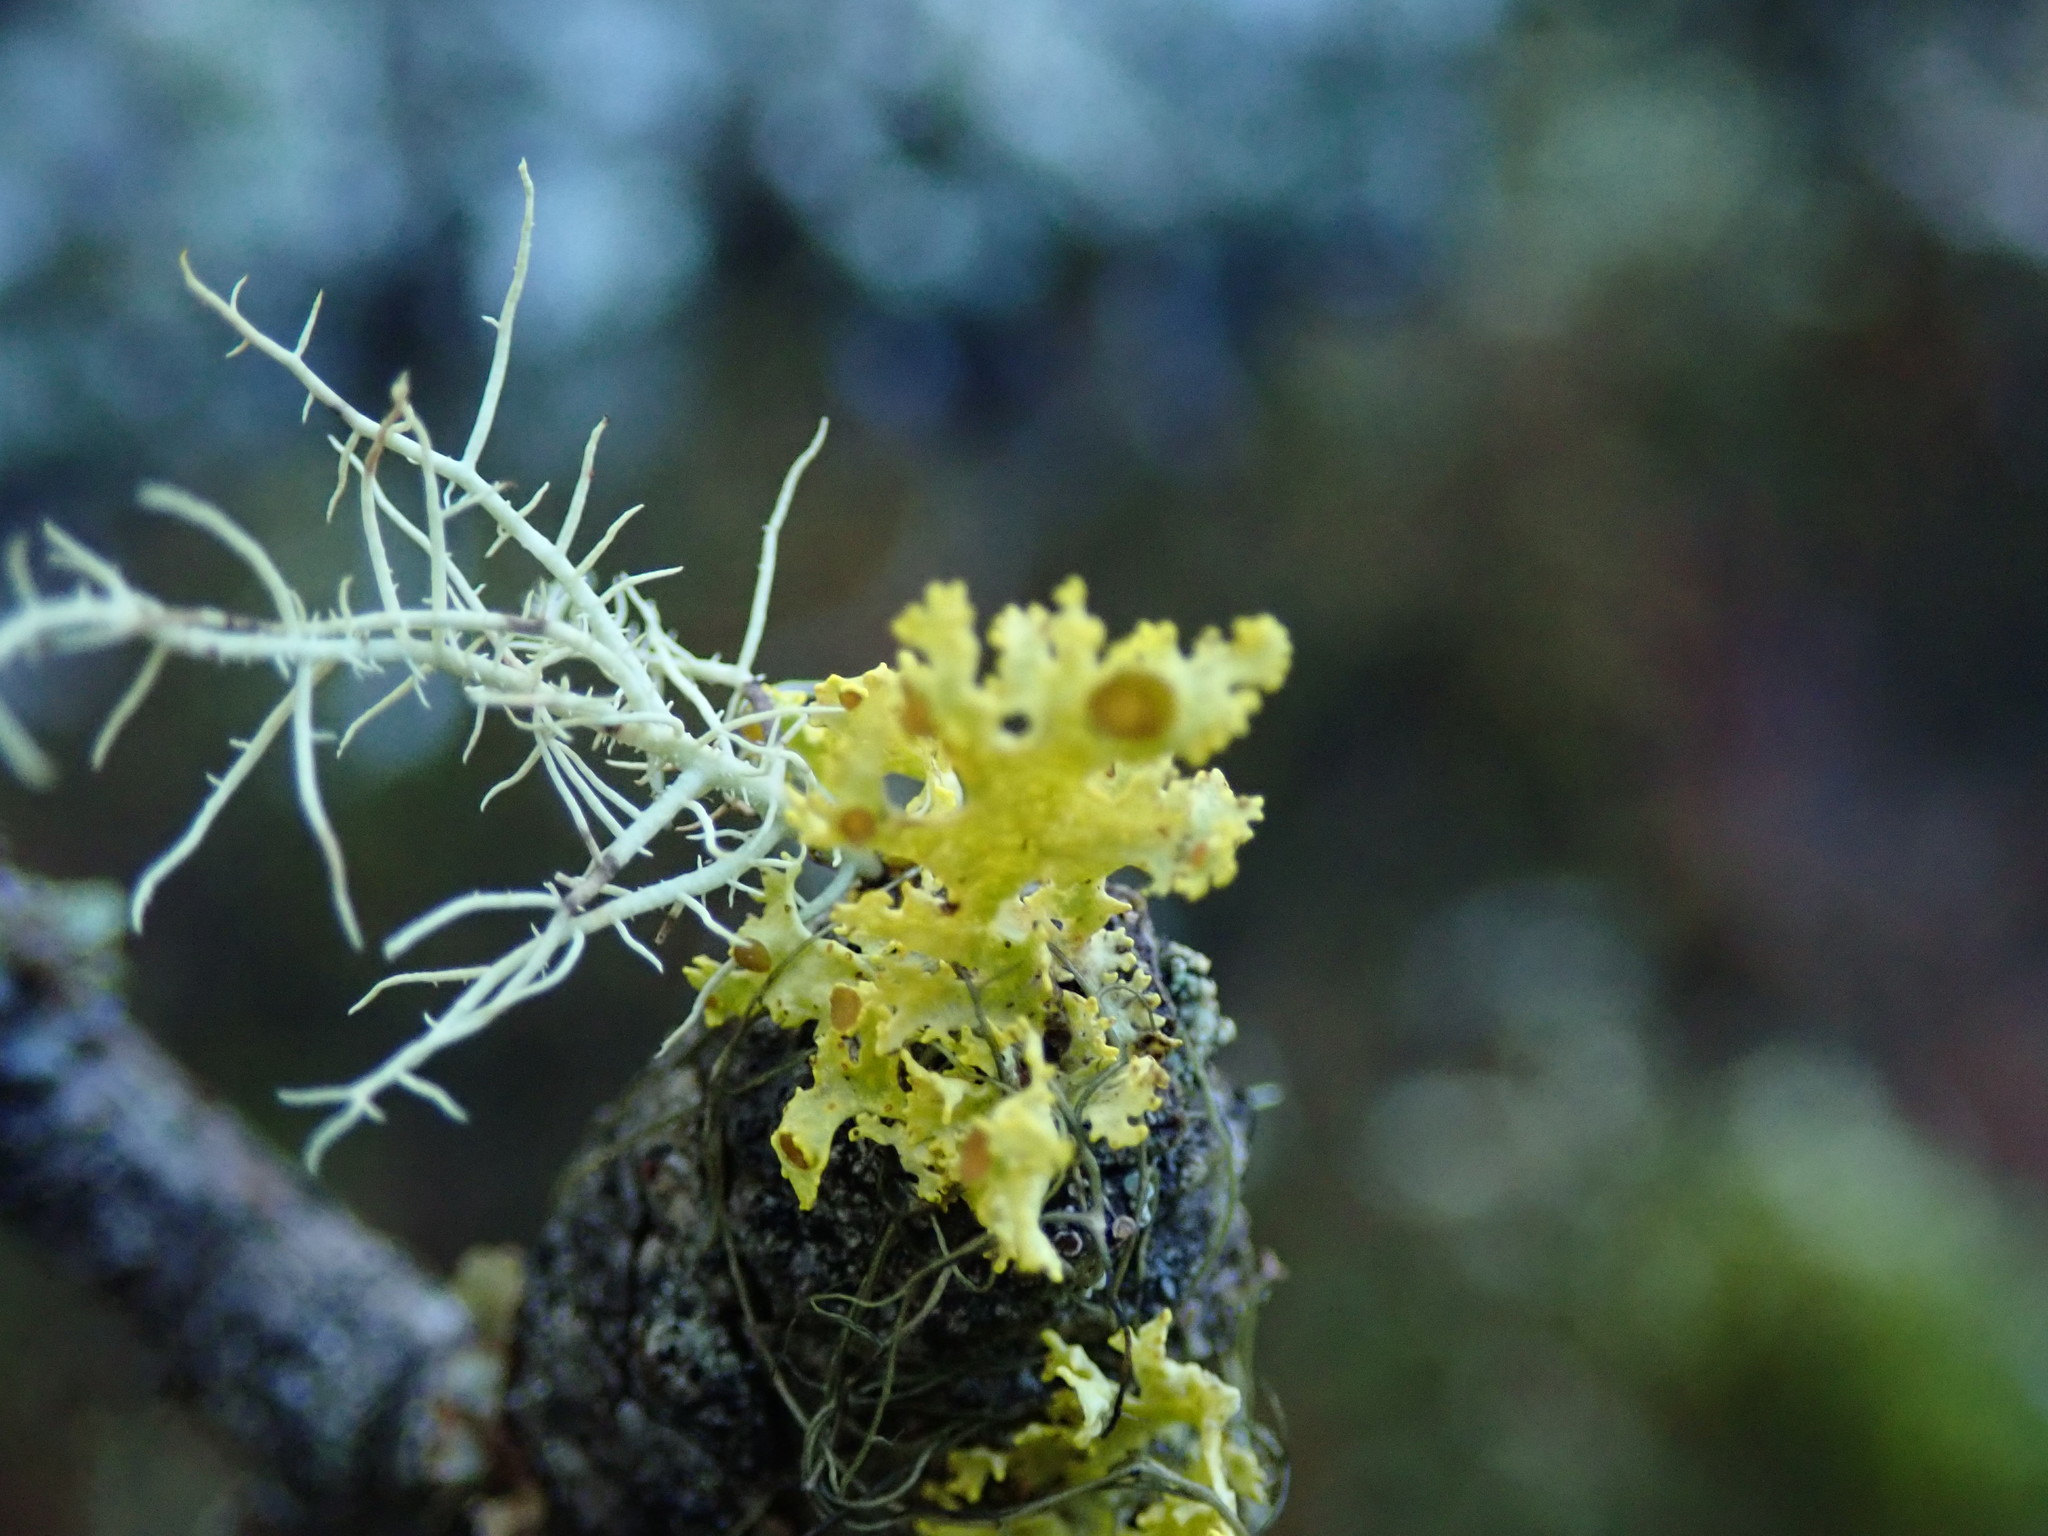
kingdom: Fungi
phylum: Ascomycota
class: Lecanoromycetes
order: Lecanorales
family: Parmeliaceae
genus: Vulpicida
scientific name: Vulpicida canadensis
